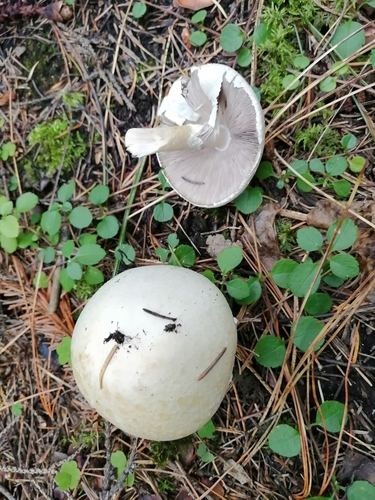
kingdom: Fungi
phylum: Basidiomycota
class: Agaricomycetes
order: Agaricales
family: Agaricaceae
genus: Agaricus
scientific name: Agaricus sylvicola
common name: Wood mushroom
